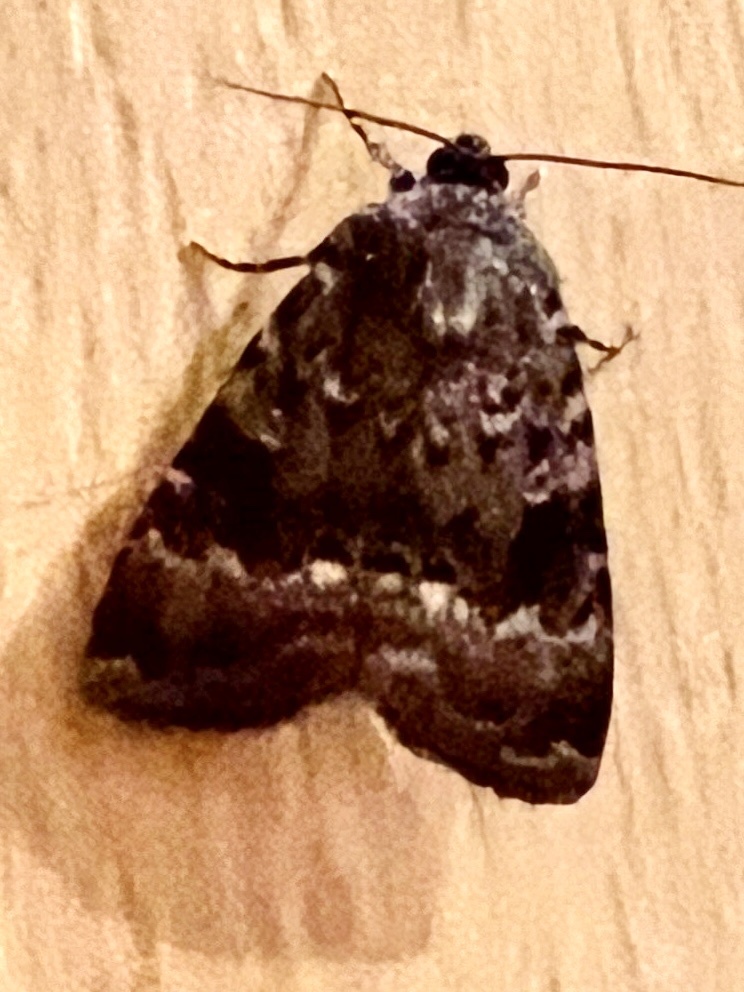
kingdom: Animalia
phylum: Arthropoda
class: Insecta
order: Lepidoptera
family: Noctuidae
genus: Amphipyra
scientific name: Amphipyra berbera
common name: Svensson's copper underwing
